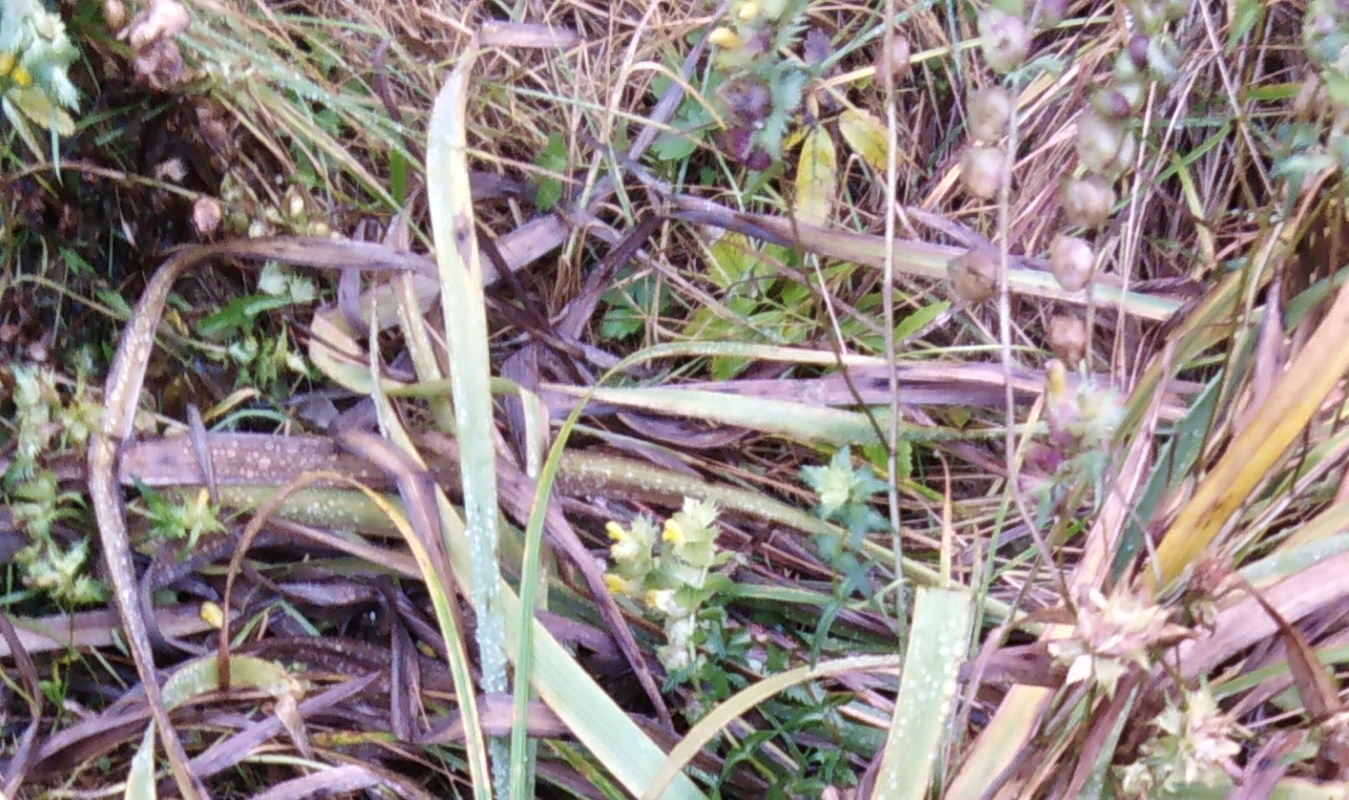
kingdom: Plantae
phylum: Tracheophyta
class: Magnoliopsida
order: Lamiales
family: Orobanchaceae
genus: Euphrasia
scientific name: Euphrasia maximowiczii
